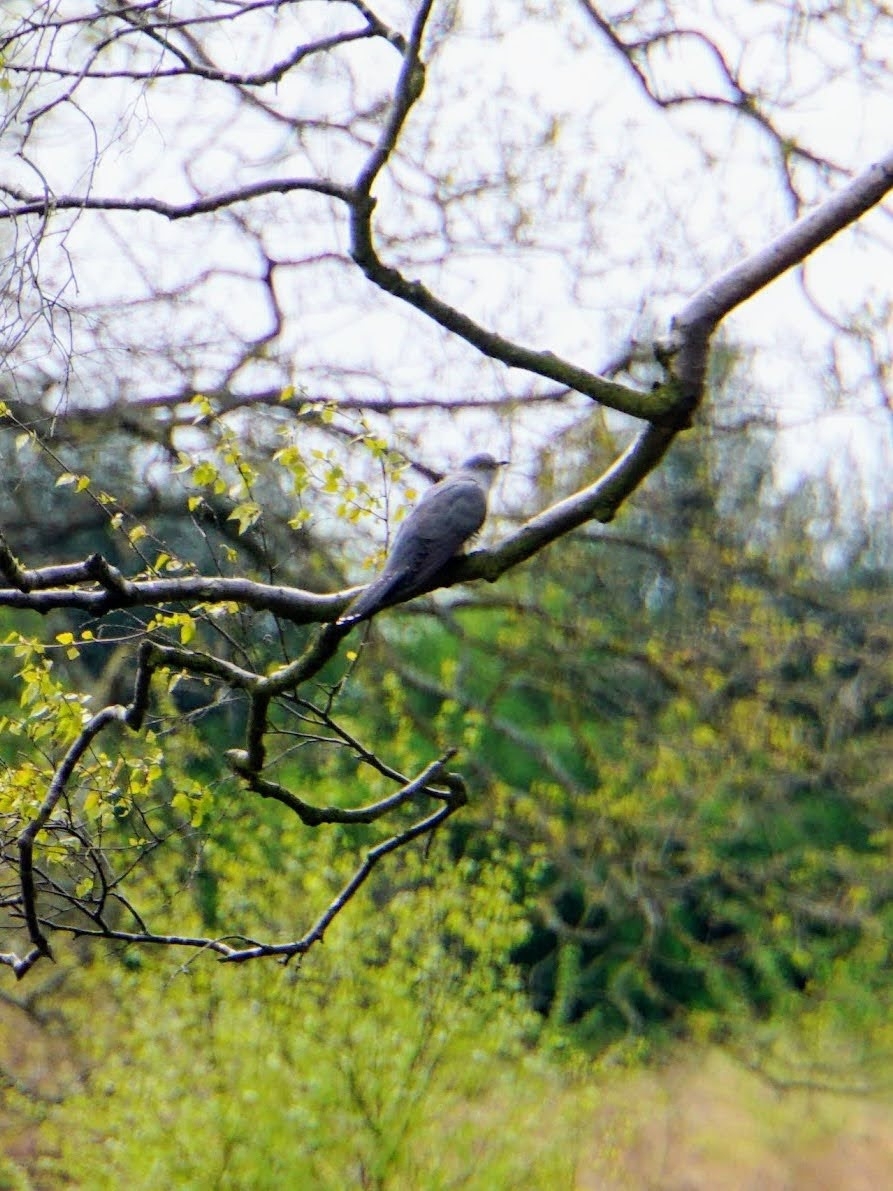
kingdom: Animalia
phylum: Chordata
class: Aves
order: Cuculiformes
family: Cuculidae
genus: Cuculus
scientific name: Cuculus canorus
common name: Common cuckoo
